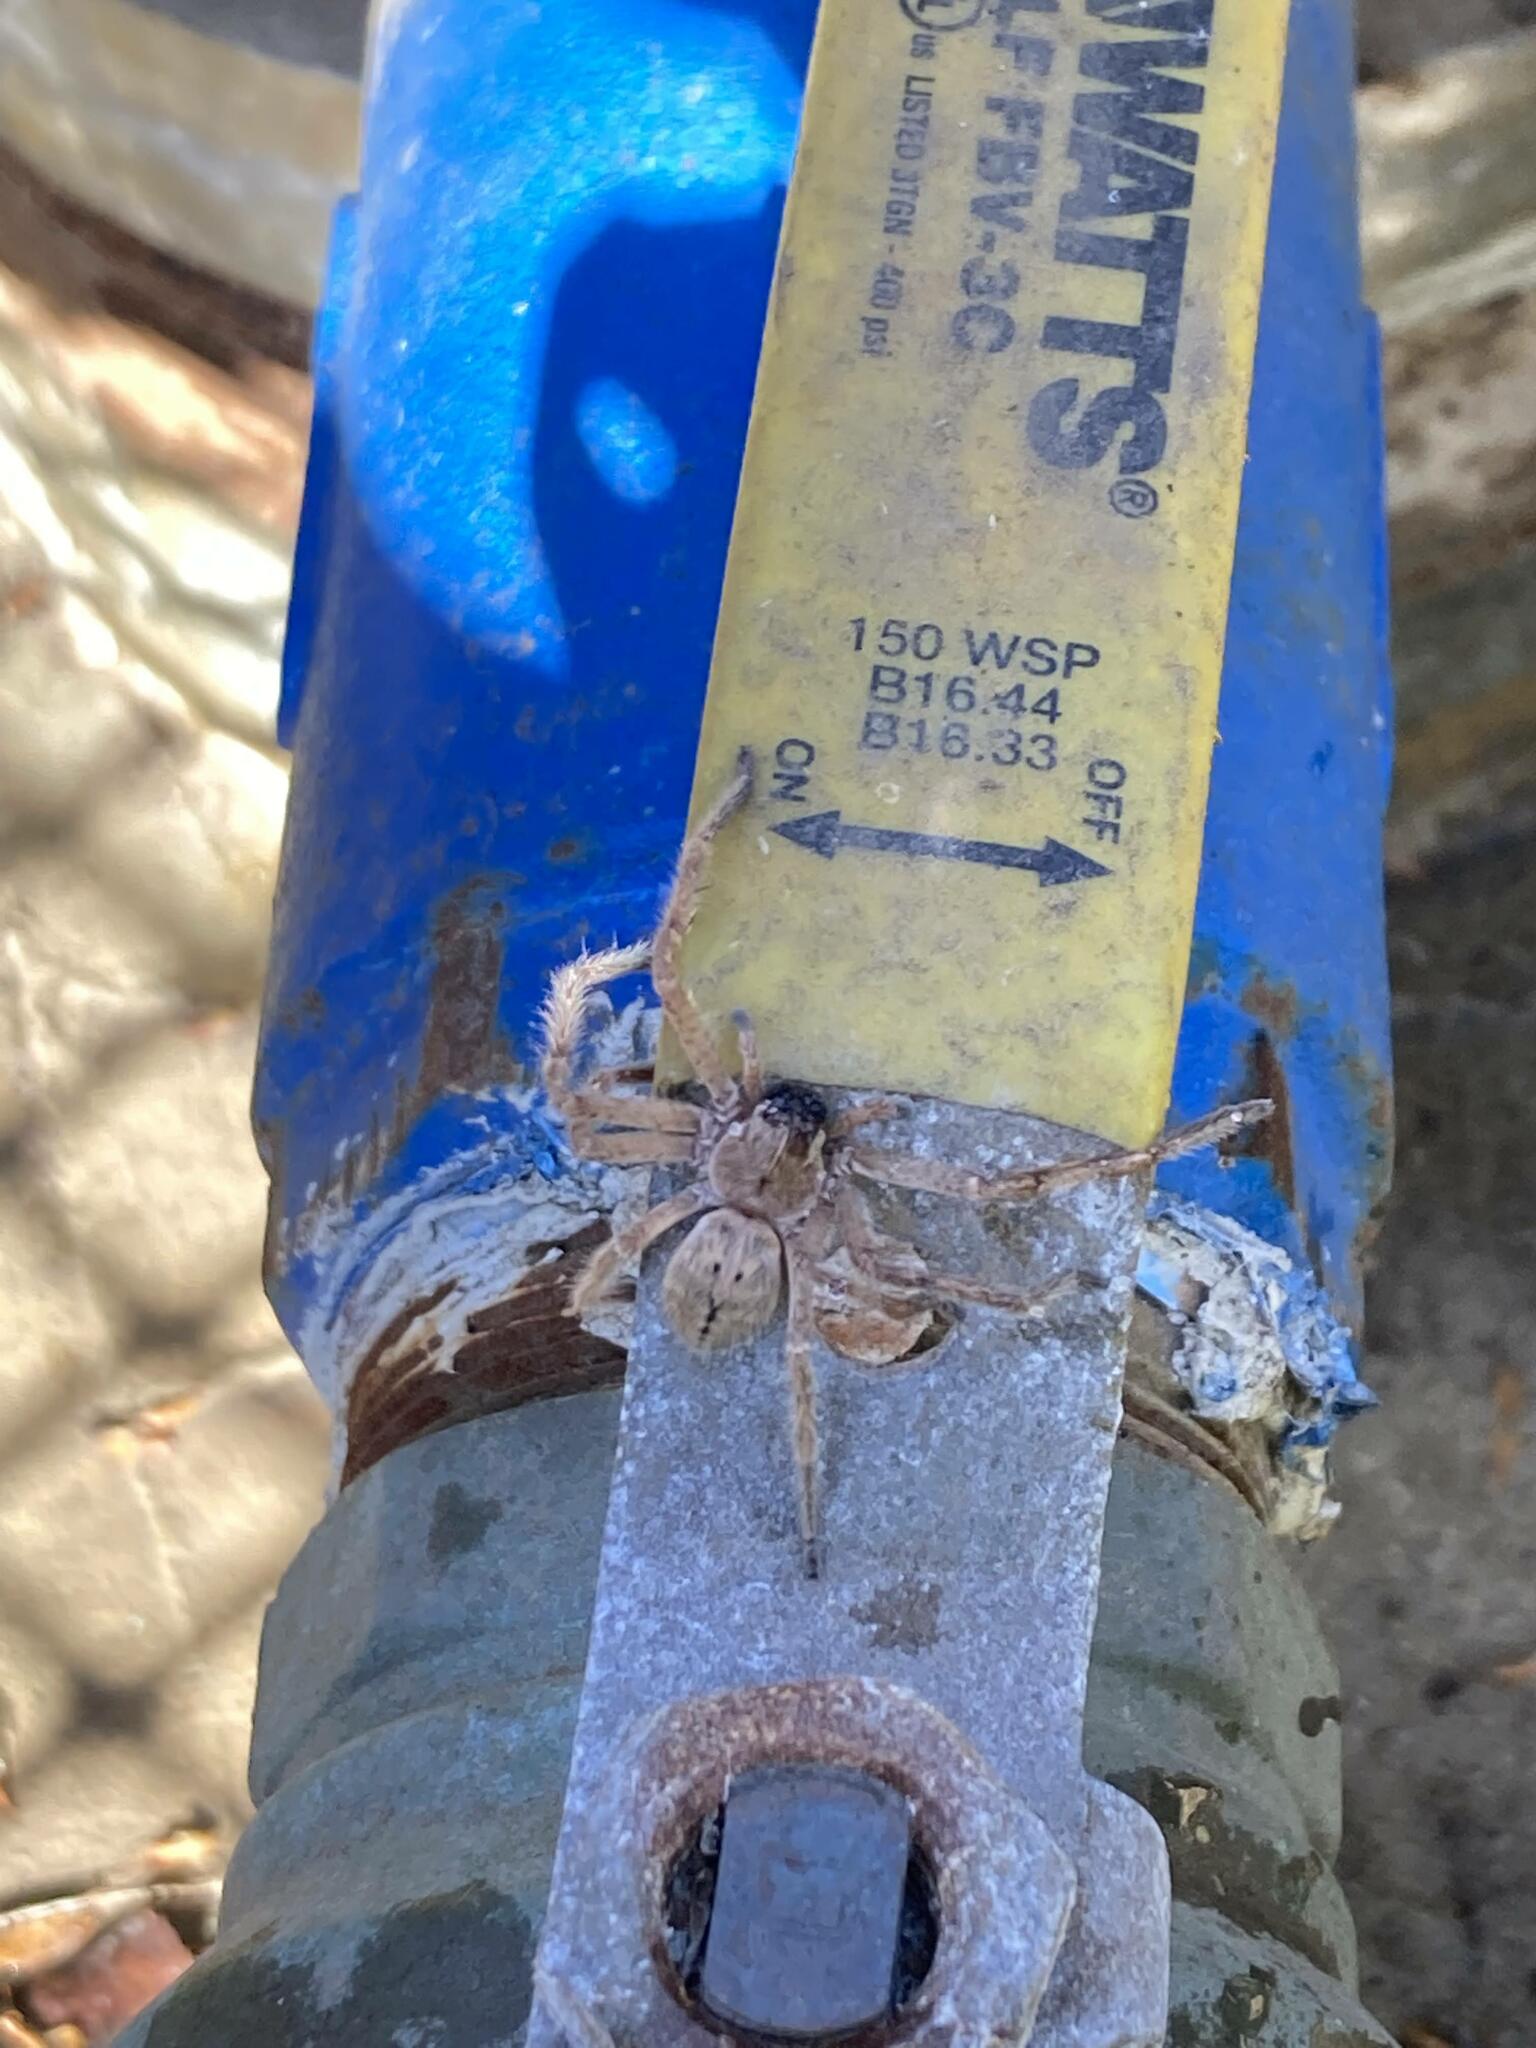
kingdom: Animalia
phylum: Arthropoda
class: Arachnida
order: Araneae
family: Sparassidae
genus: Olios
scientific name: Olios giganteus
